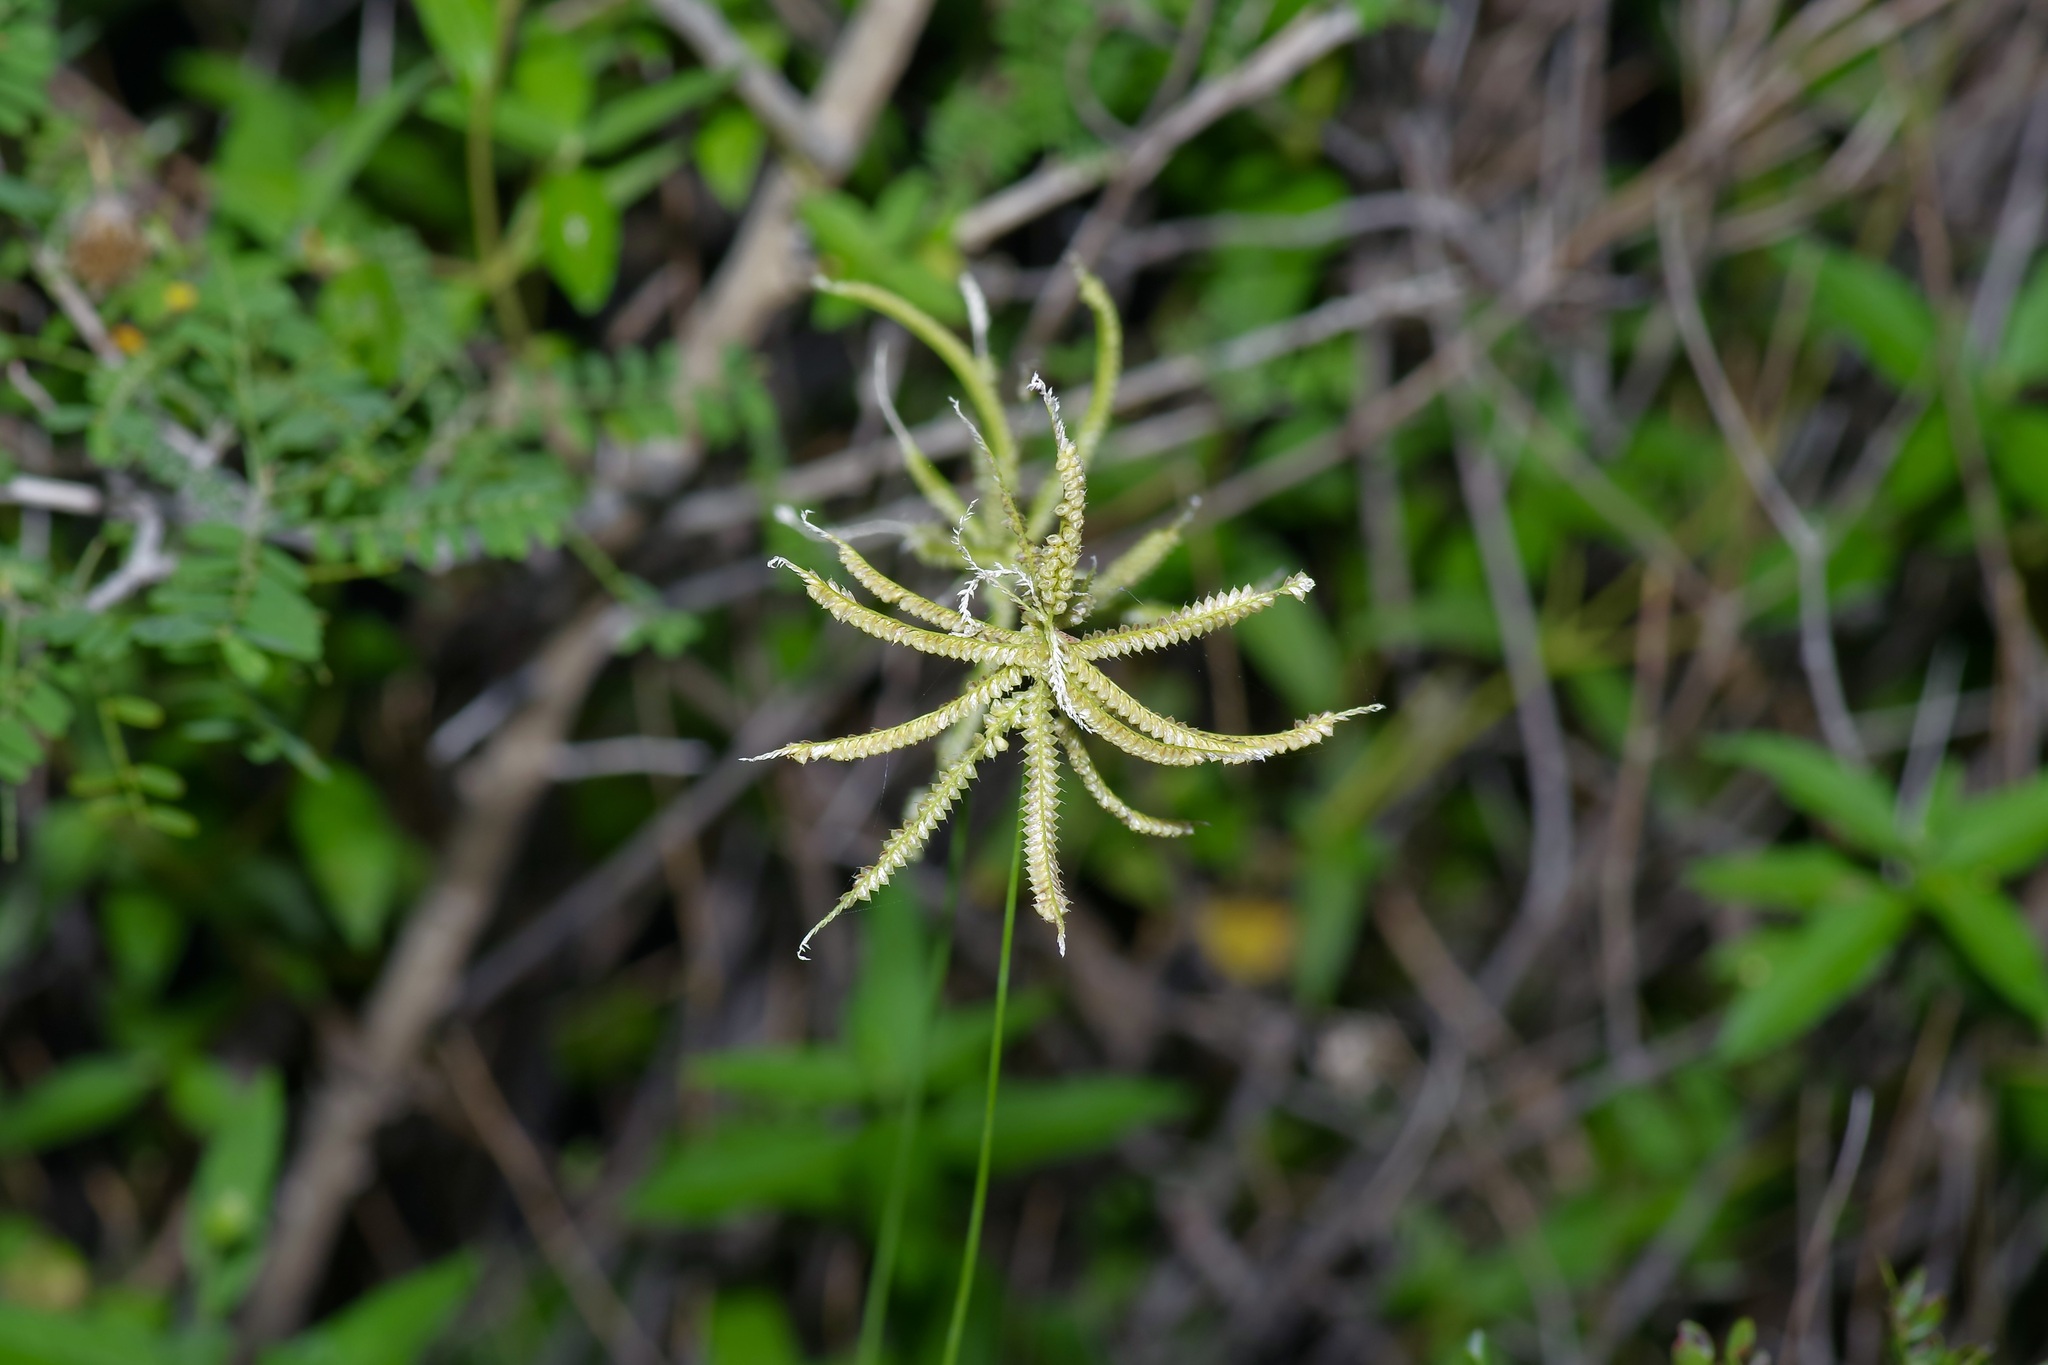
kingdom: Plantae
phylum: Tracheophyta
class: Liliopsida
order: Poales
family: Poaceae
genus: Chloris
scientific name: Chloris cucullata
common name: Hooded windmill grass
